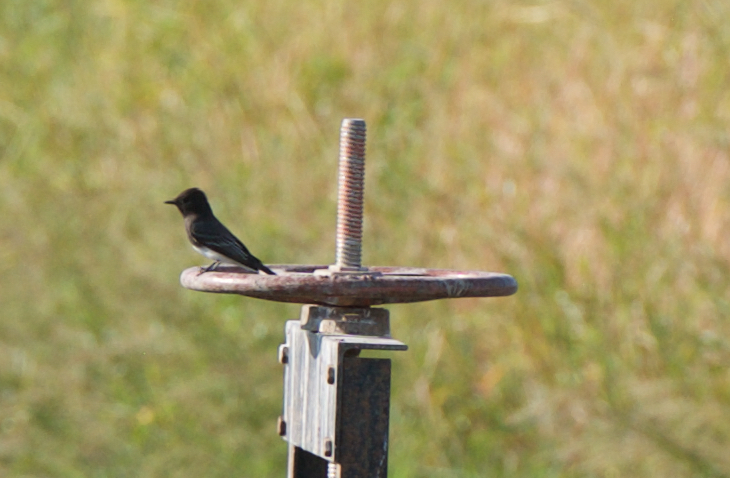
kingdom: Animalia
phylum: Chordata
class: Aves
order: Passeriformes
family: Tyrannidae
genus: Sayornis
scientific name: Sayornis nigricans
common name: Black phoebe
